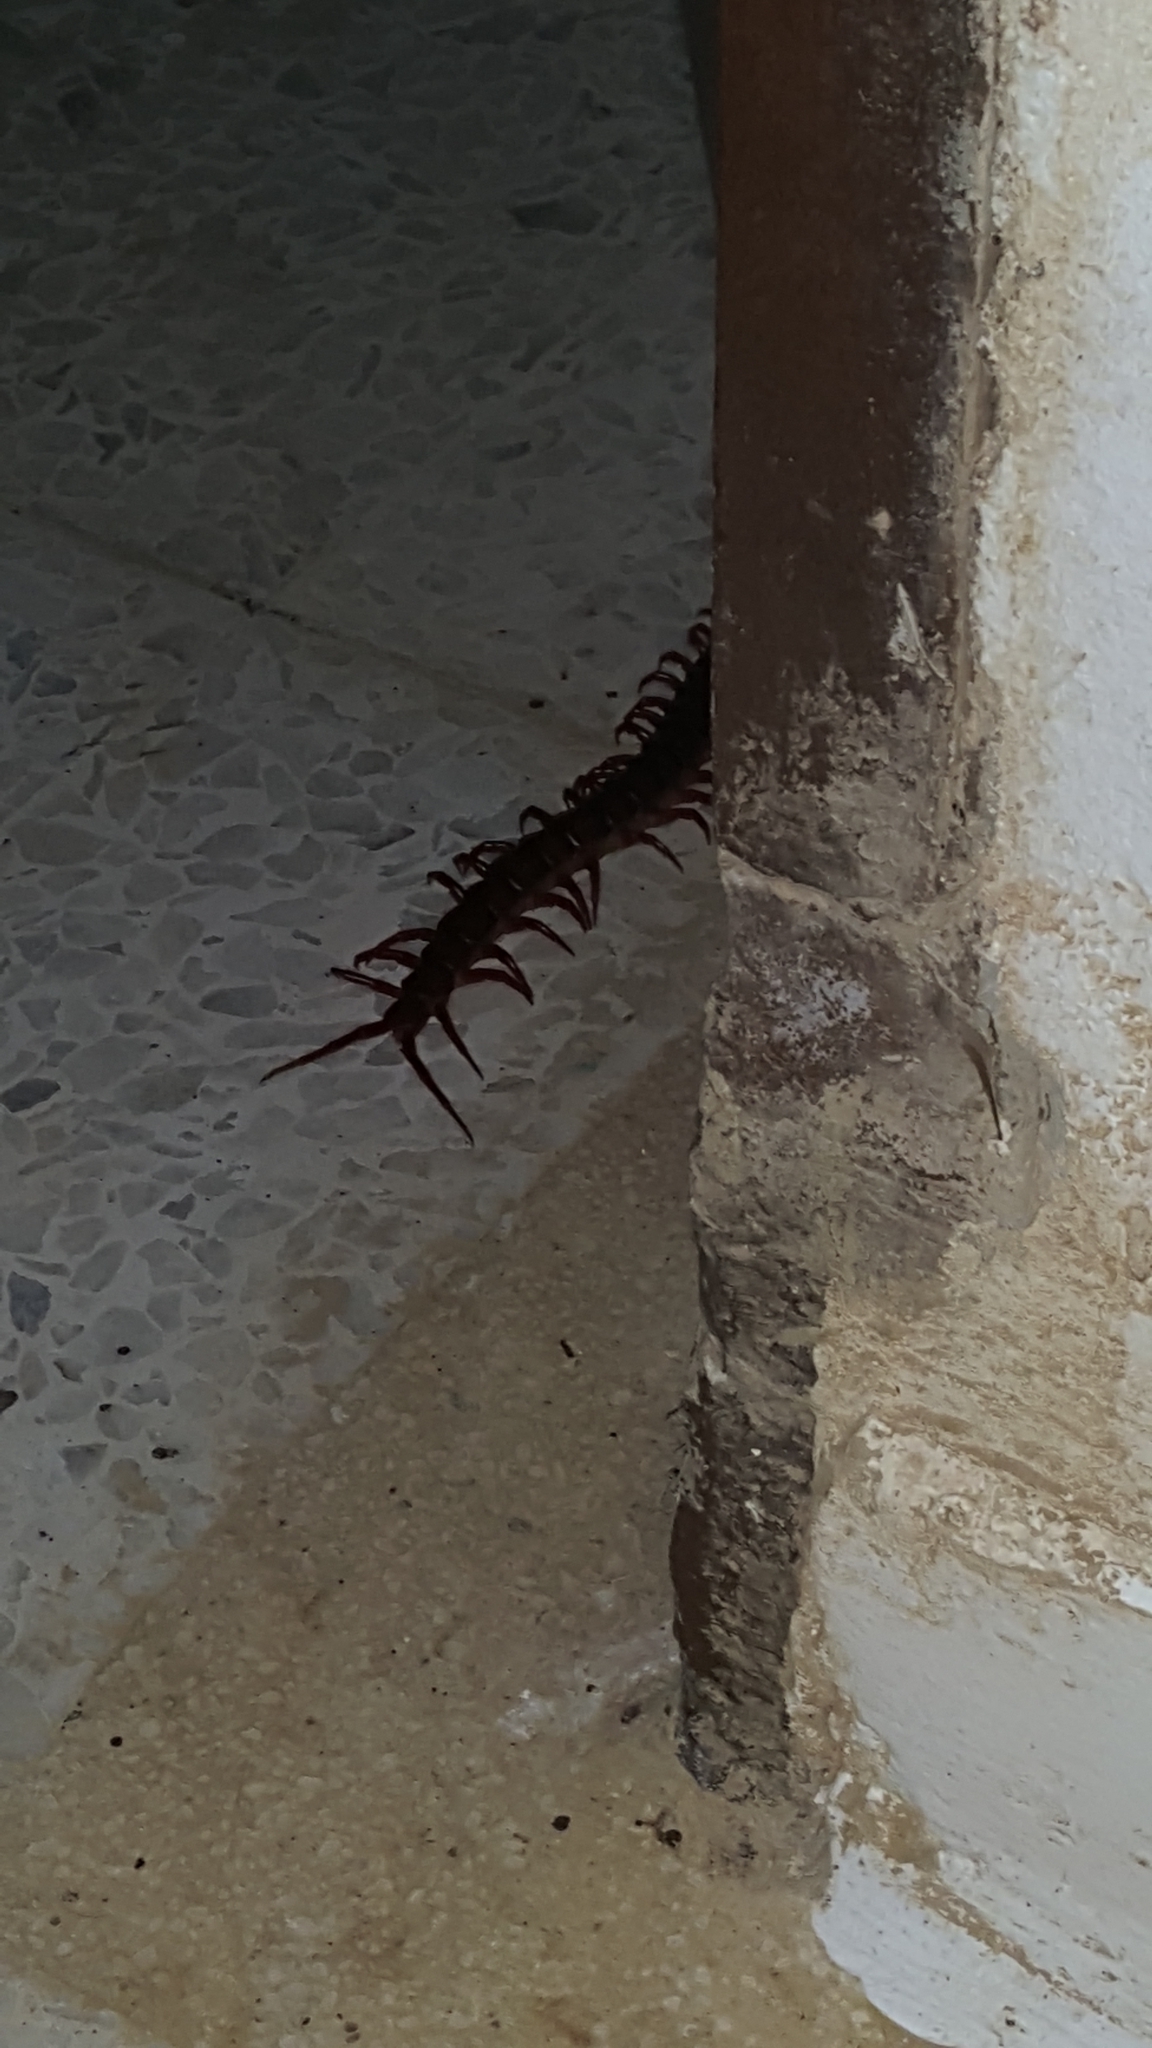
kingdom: Animalia
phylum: Arthropoda
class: Chilopoda
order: Scolopendromorpha
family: Scolopendridae
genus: Scolopendra
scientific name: Scolopendra subspinipes
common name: Centipede
